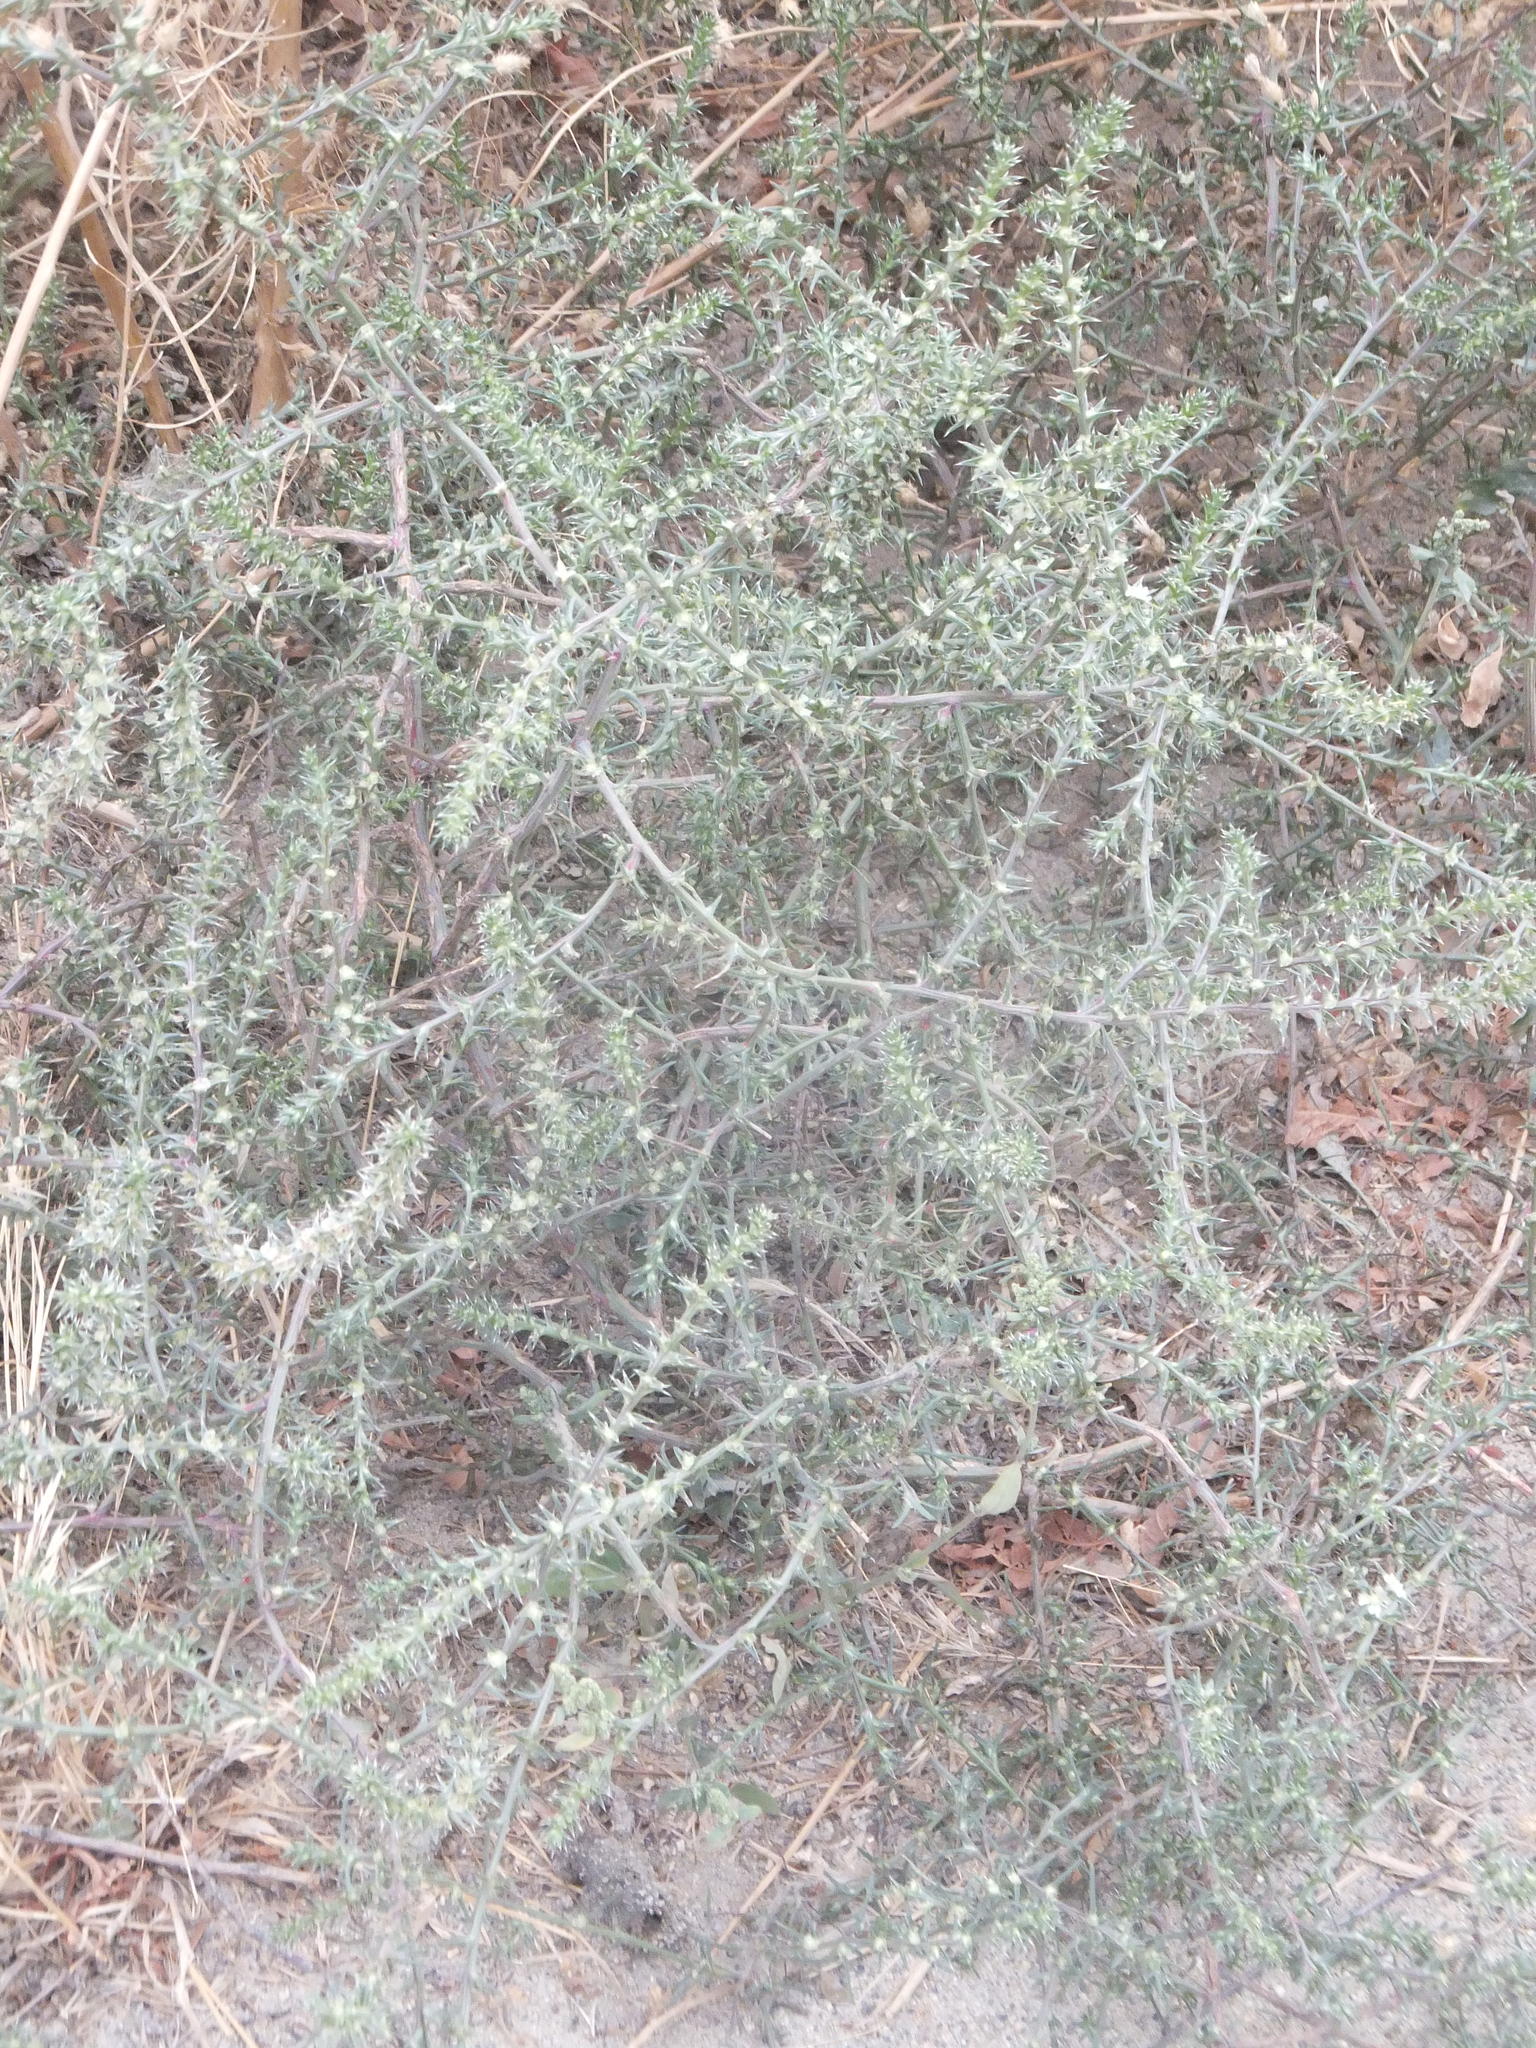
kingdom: Plantae
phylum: Tracheophyta
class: Magnoliopsida
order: Caryophyllales
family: Amaranthaceae
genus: Salsola
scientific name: Salsola tragus
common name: Prickly russian thistle
